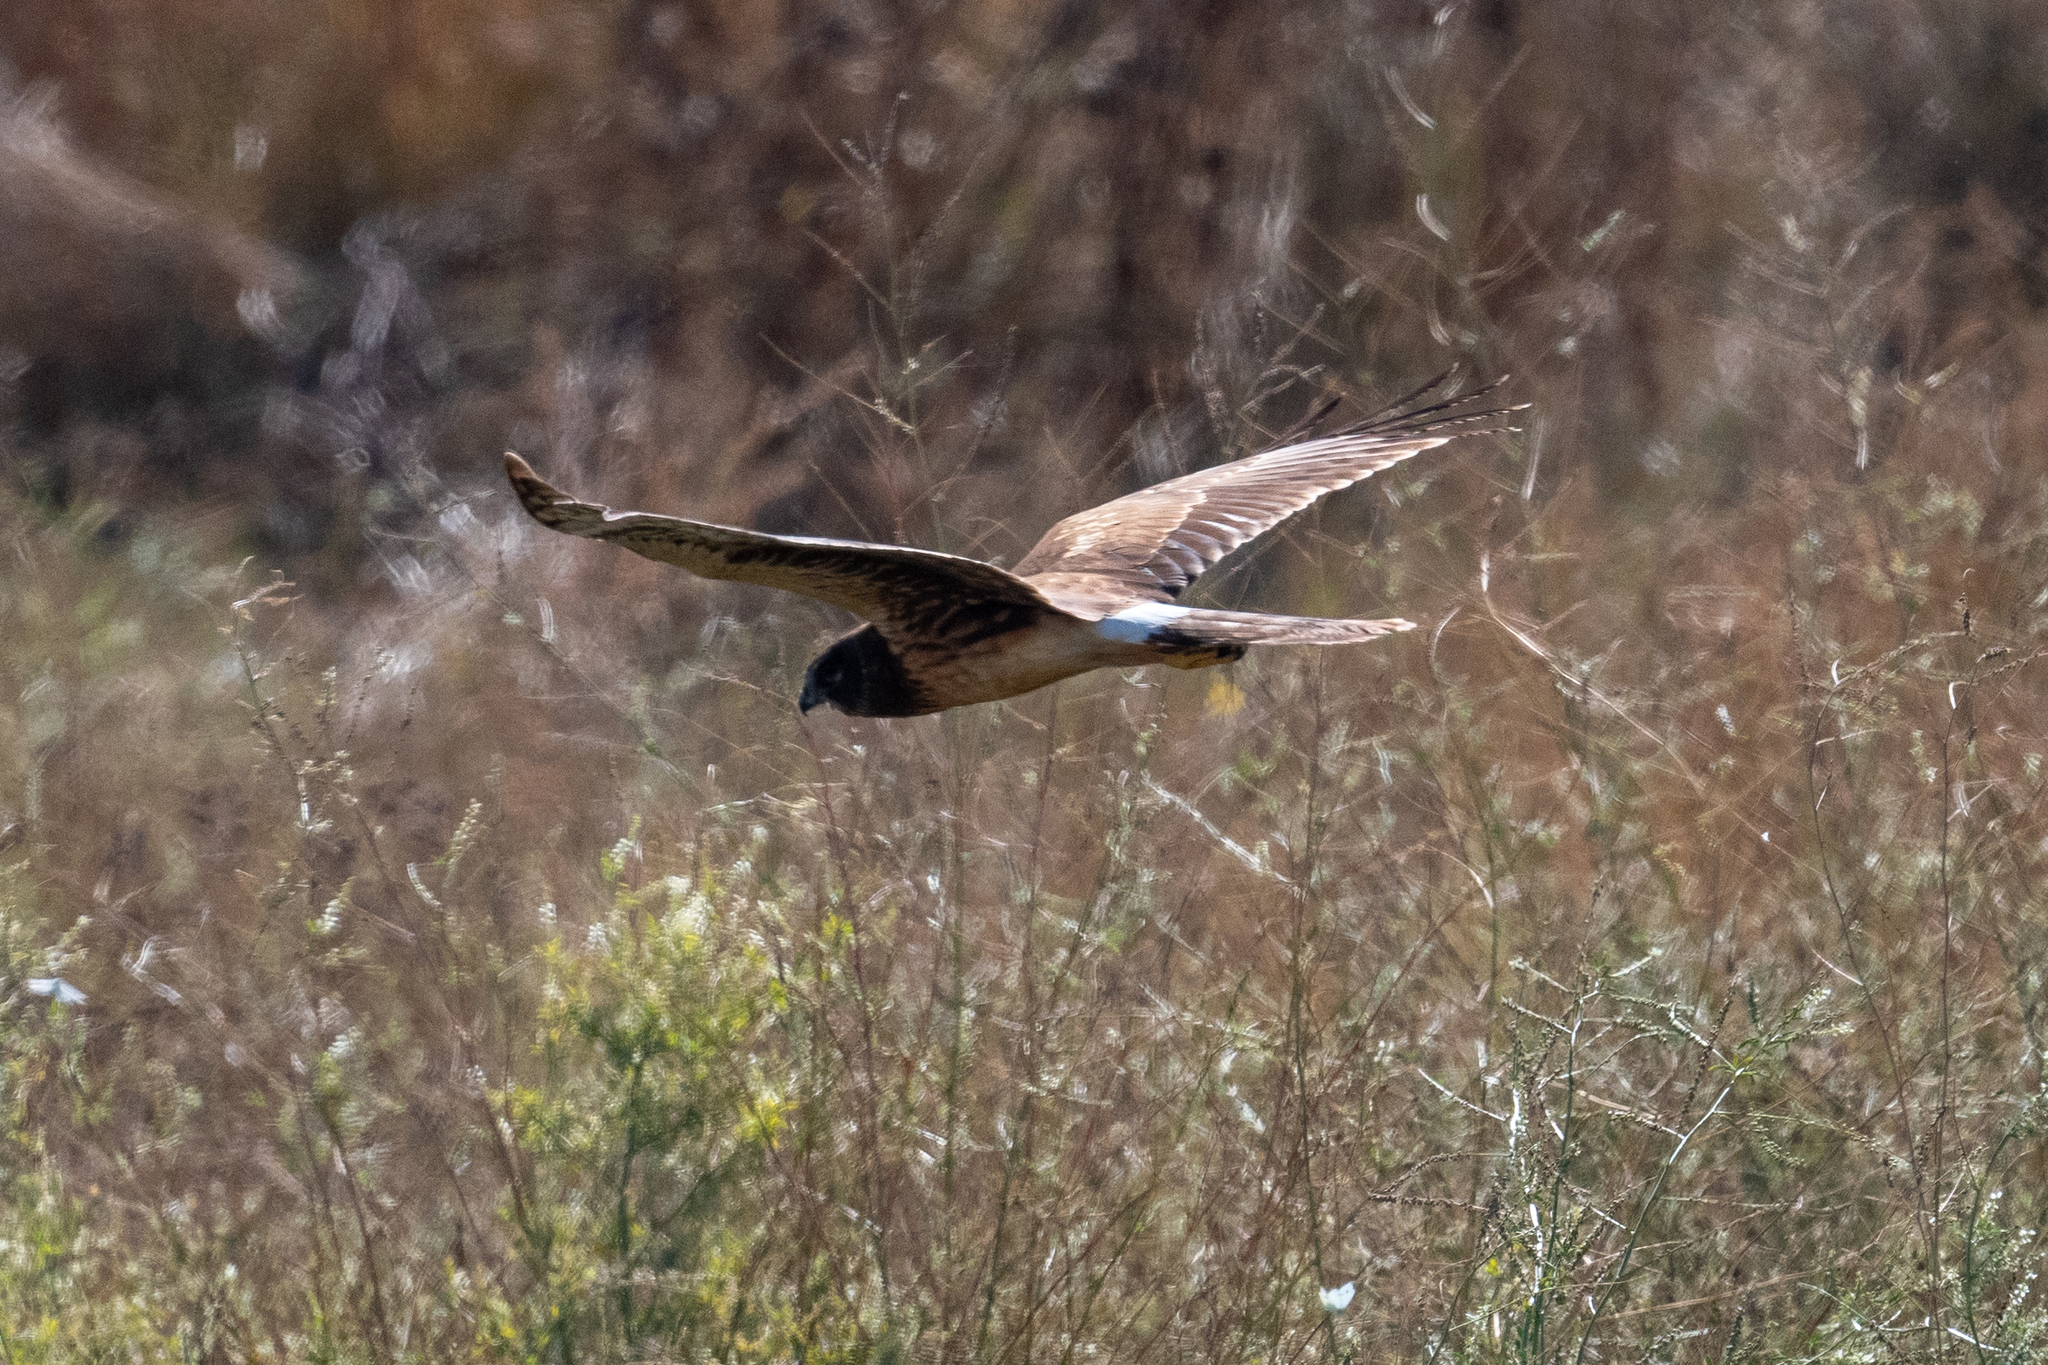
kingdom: Animalia
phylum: Chordata
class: Aves
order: Accipitriformes
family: Accipitridae
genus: Circus
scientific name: Circus cyaneus
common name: Hen harrier
